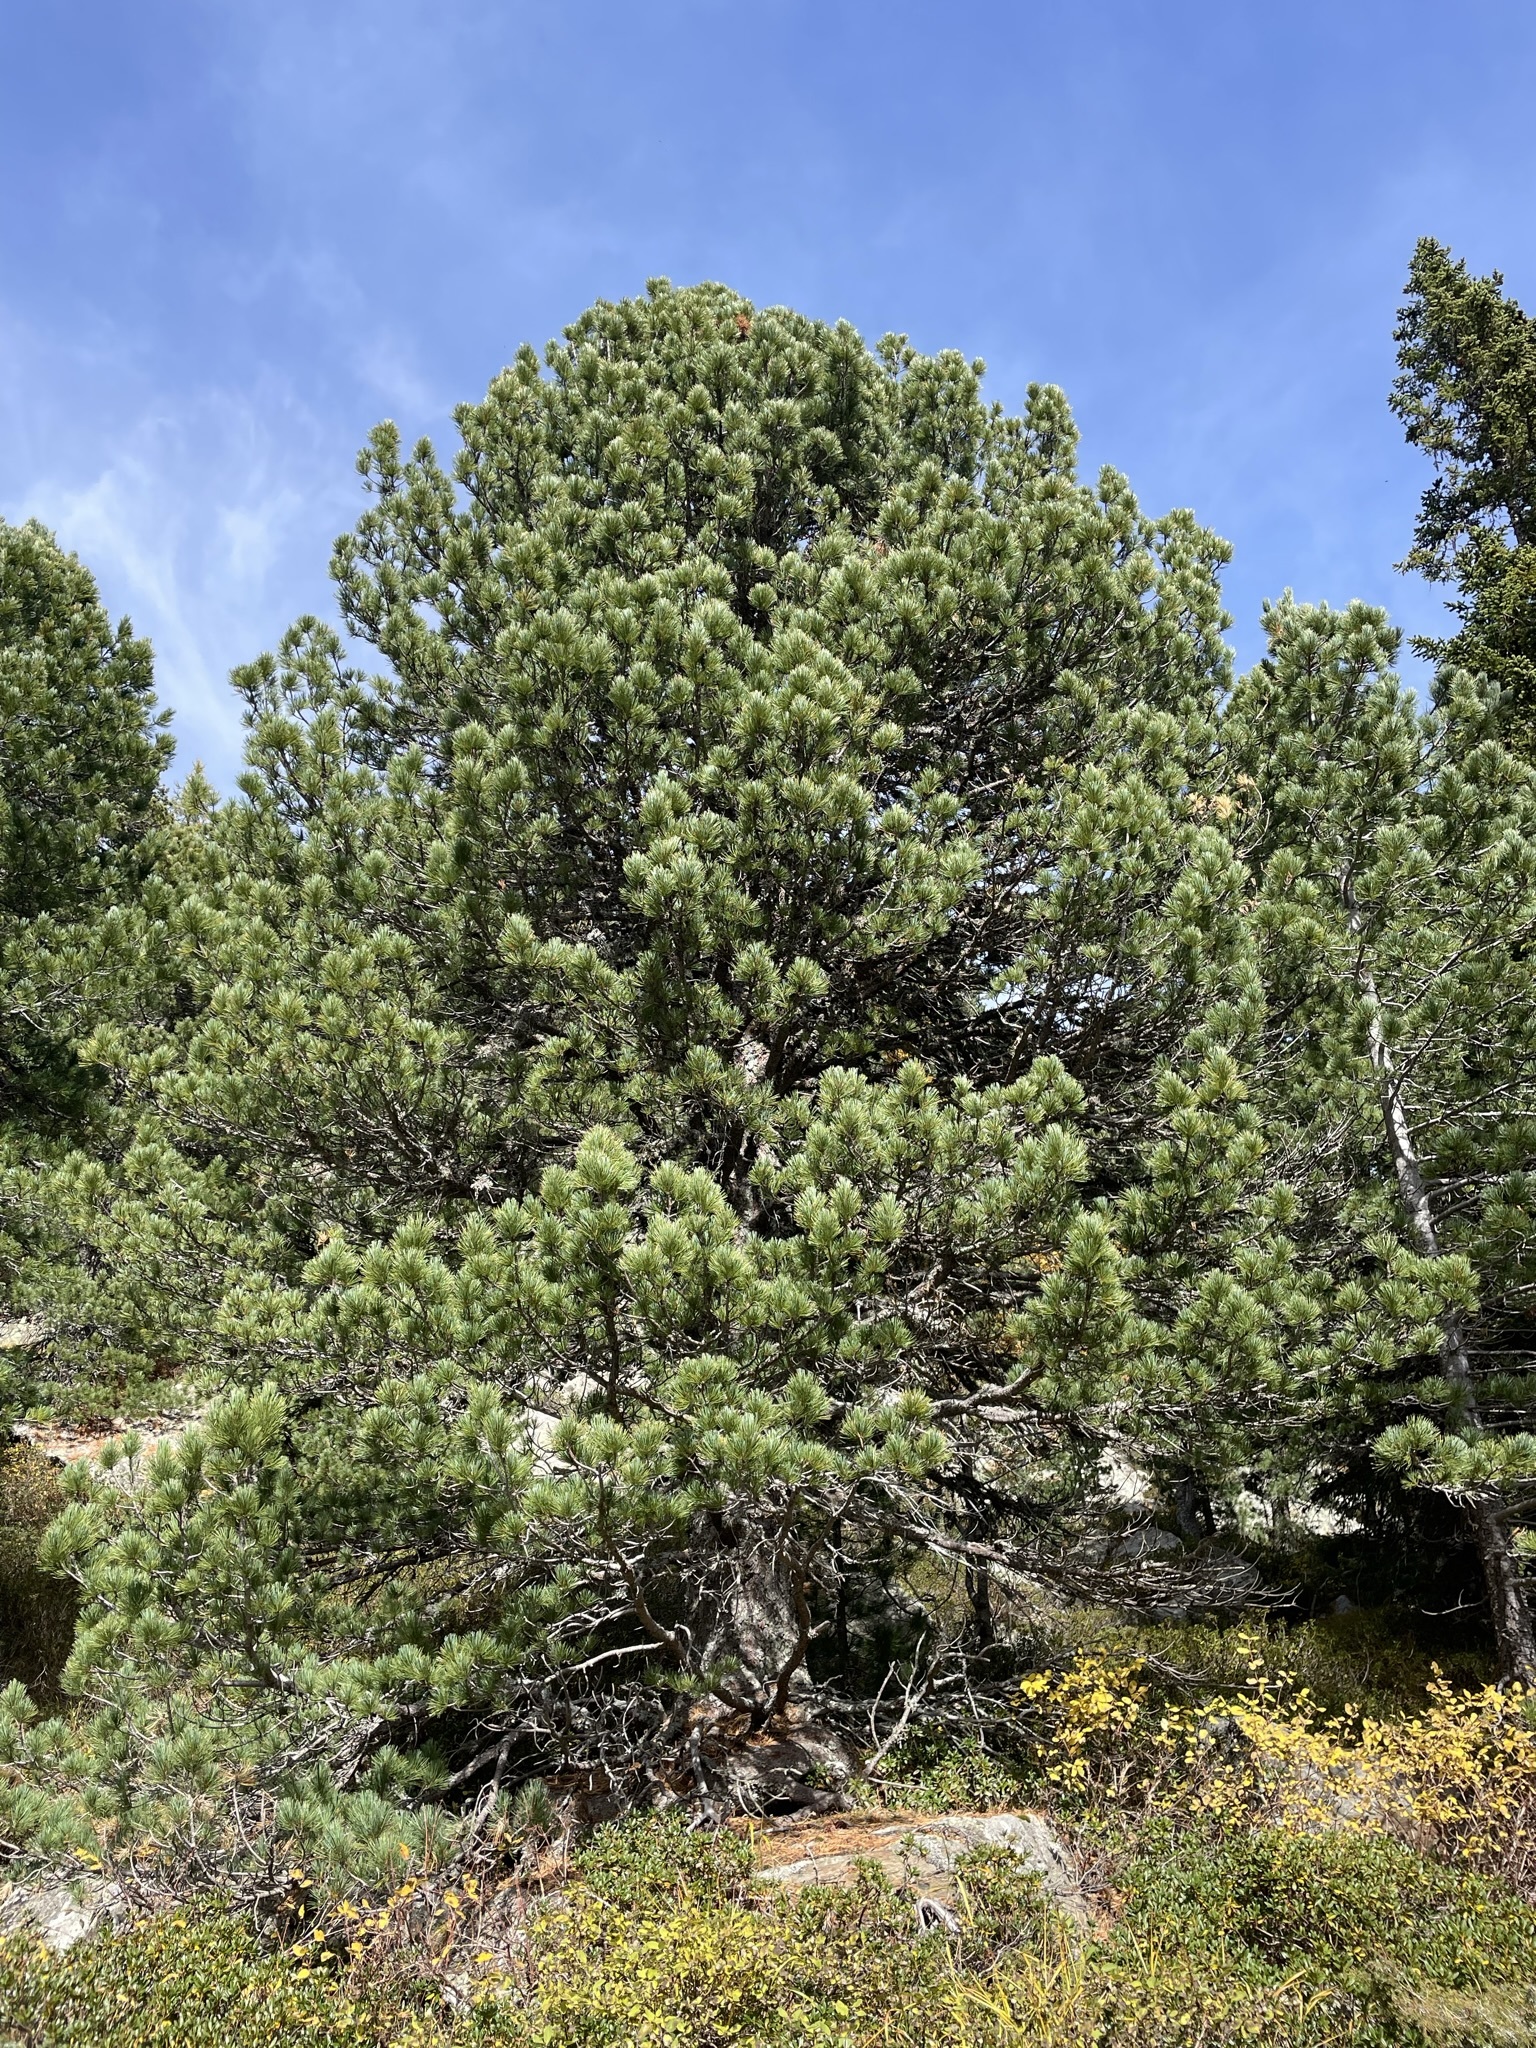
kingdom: Plantae
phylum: Tracheophyta
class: Pinopsida
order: Pinales
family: Pinaceae
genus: Pinus
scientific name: Pinus cembra
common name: Arolla pine
